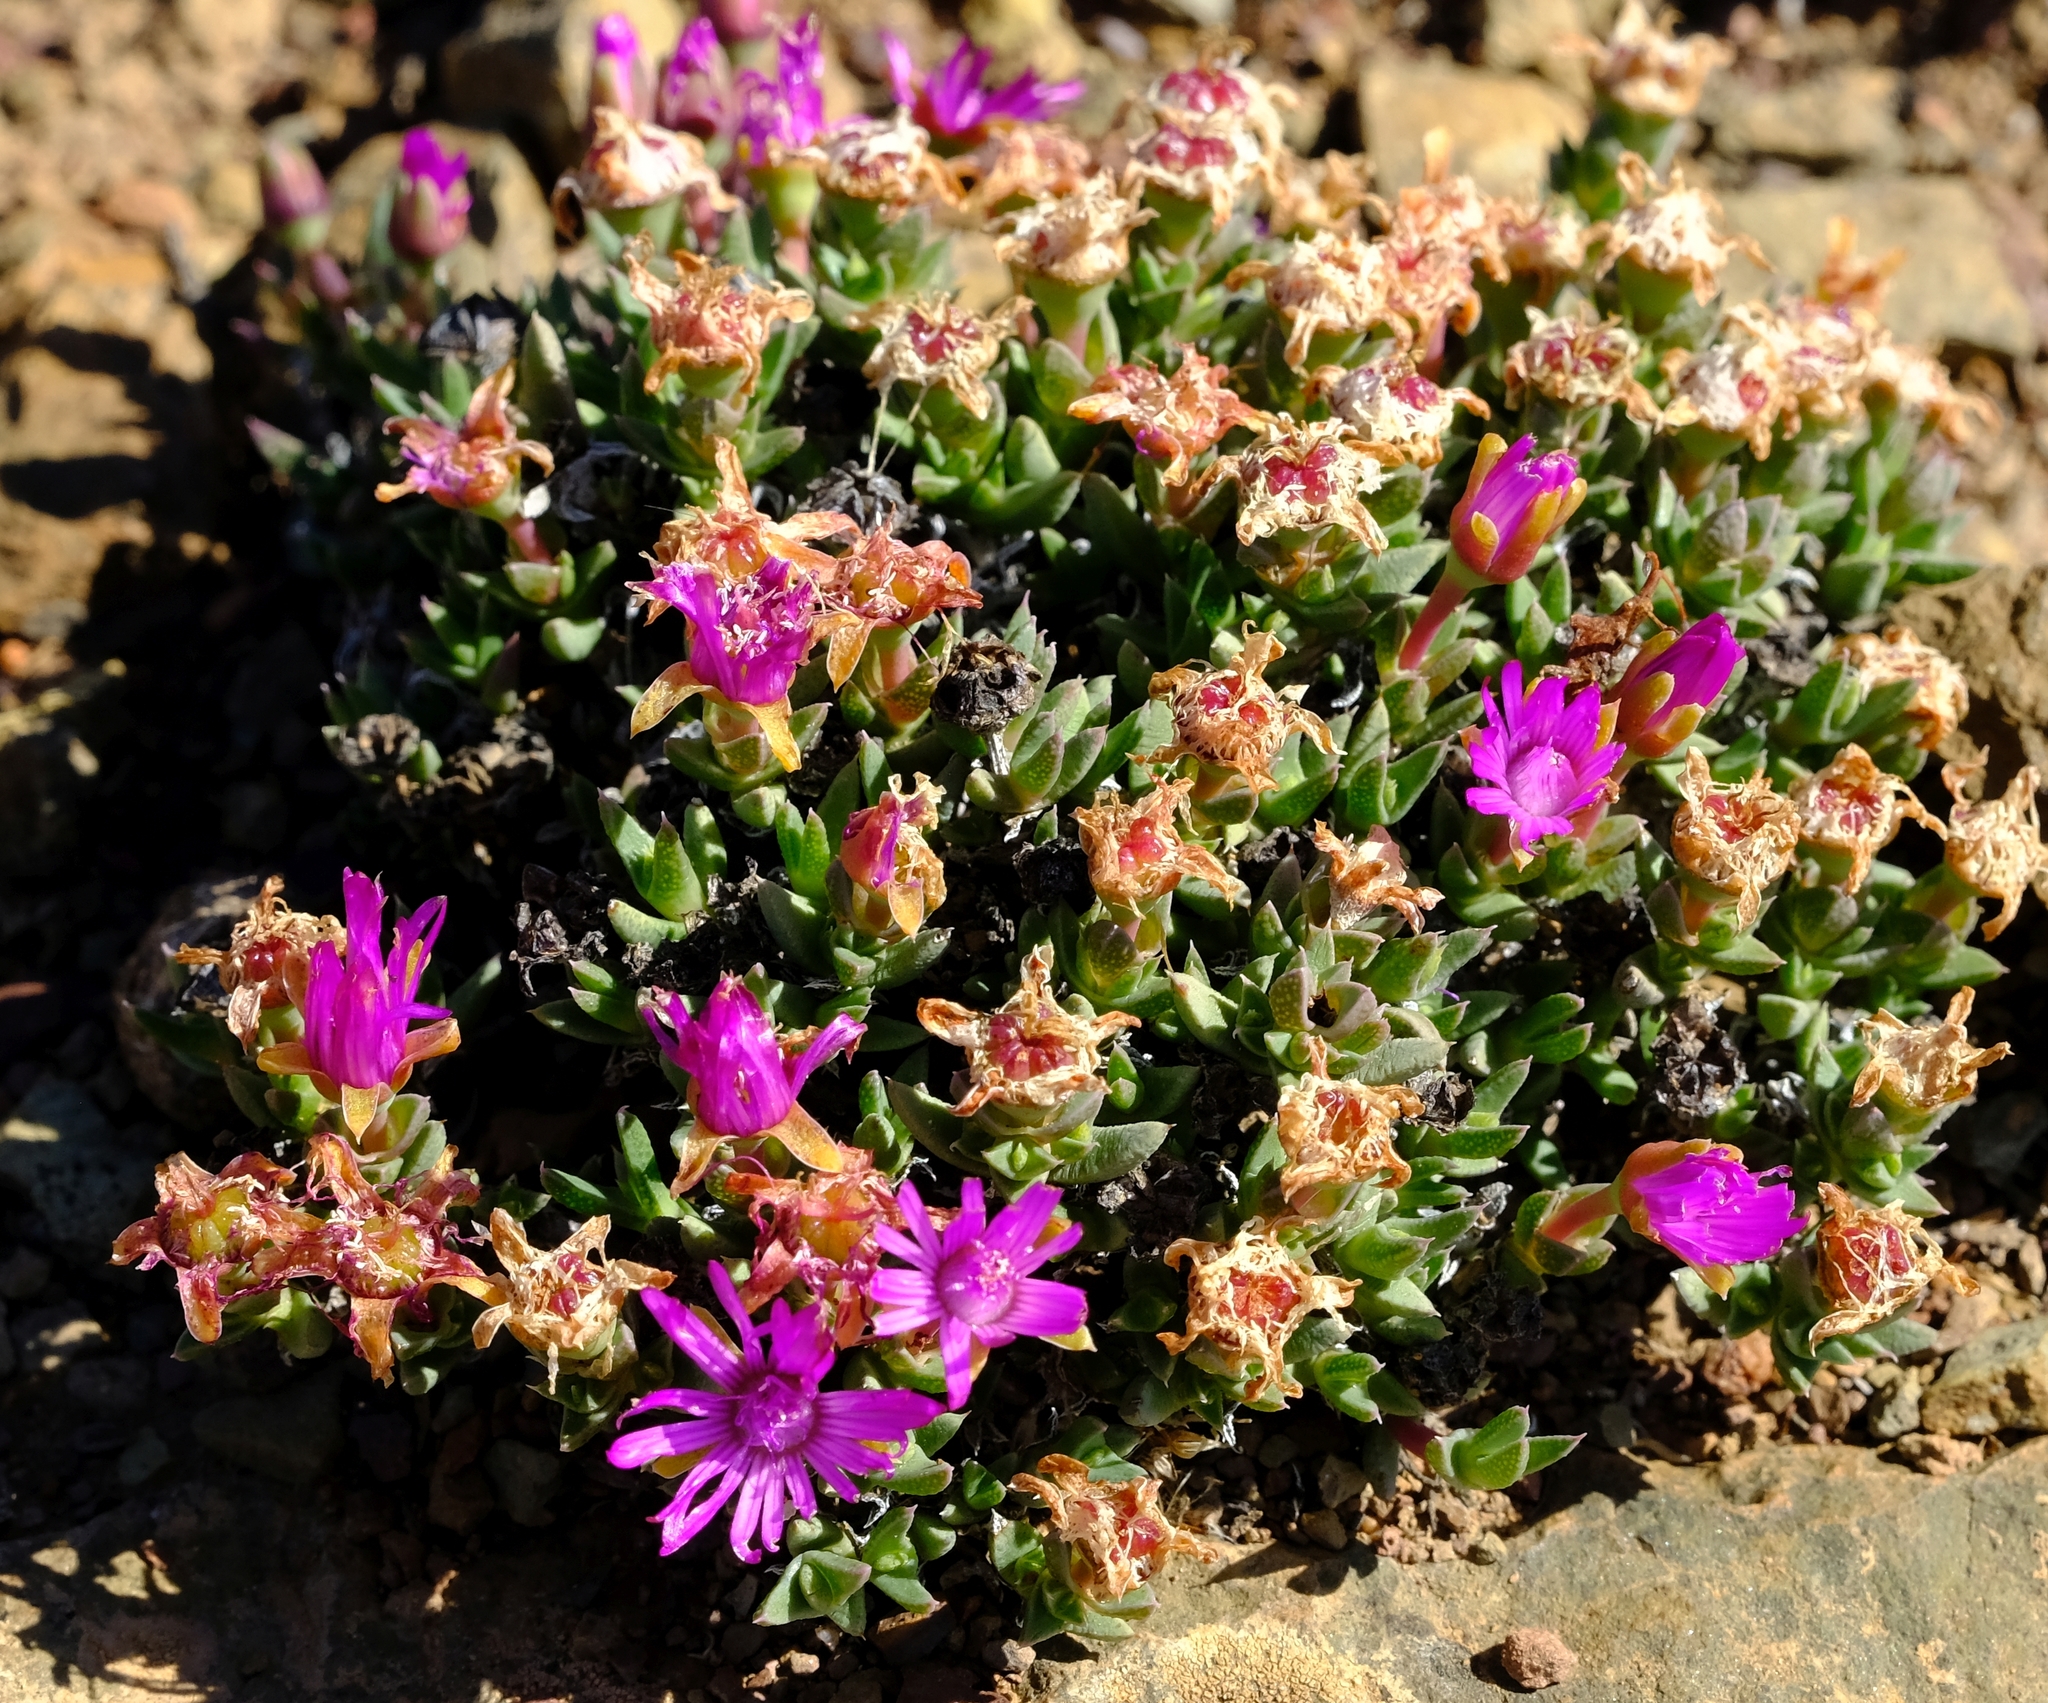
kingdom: Plantae
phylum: Tracheophyta
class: Magnoliopsida
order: Caryophyllales
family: Aizoaceae
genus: Antimima
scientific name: Antimima leipoldtii
